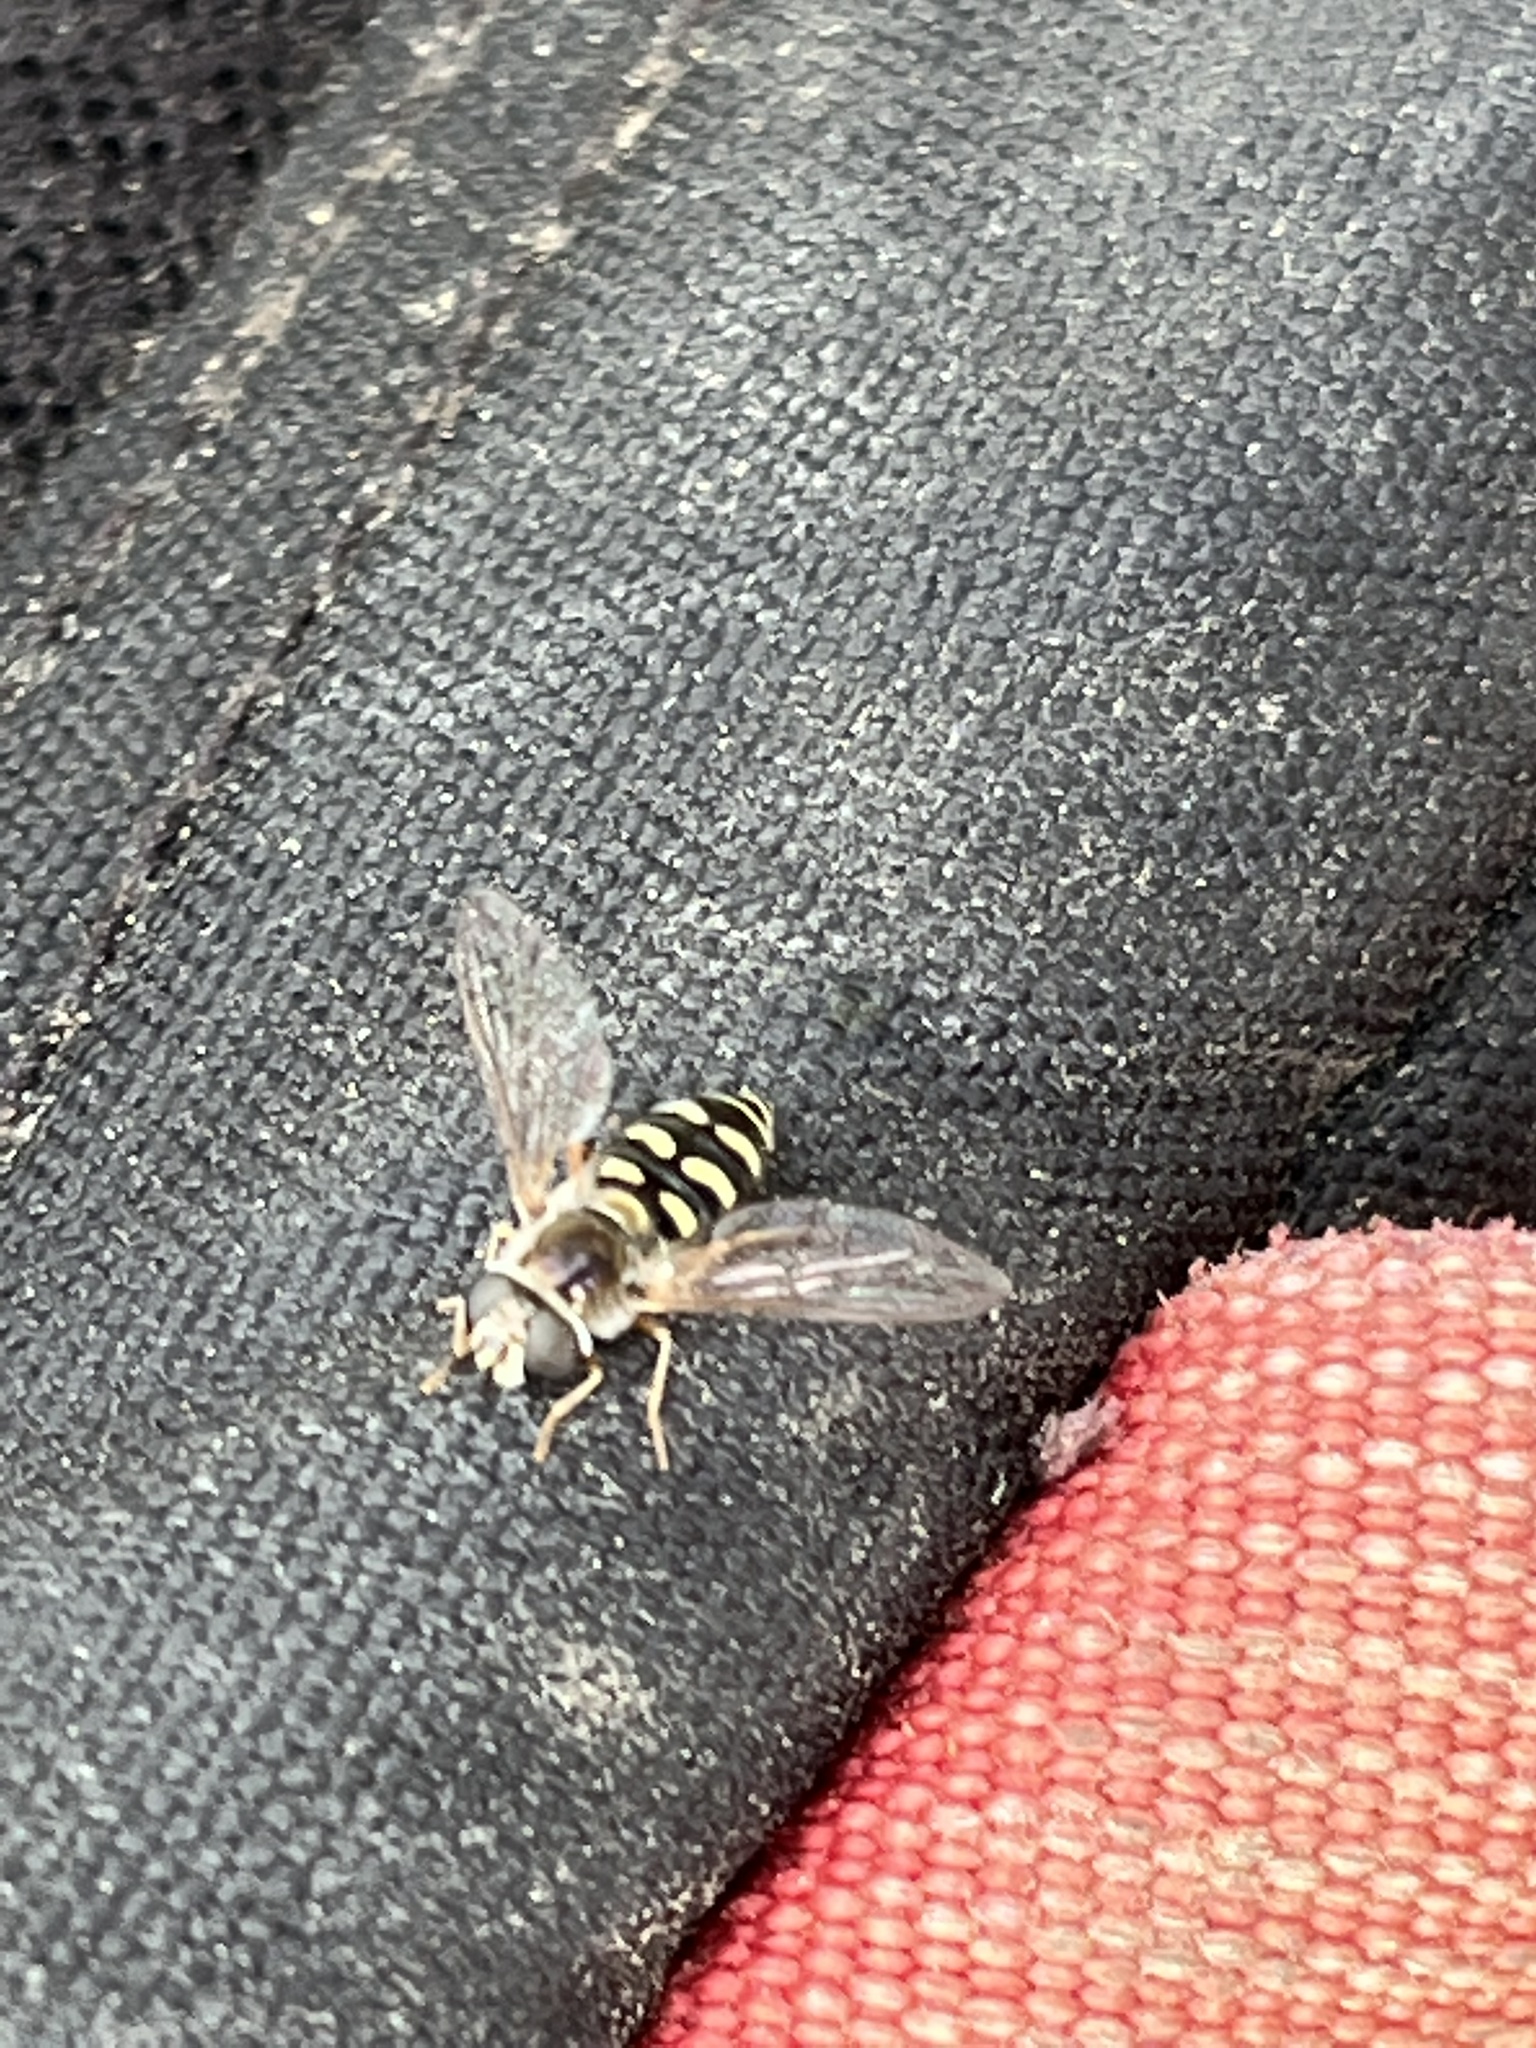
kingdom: Animalia
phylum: Arthropoda
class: Insecta
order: Diptera
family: Syrphidae
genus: Eupeodes
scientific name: Eupeodes volucris
